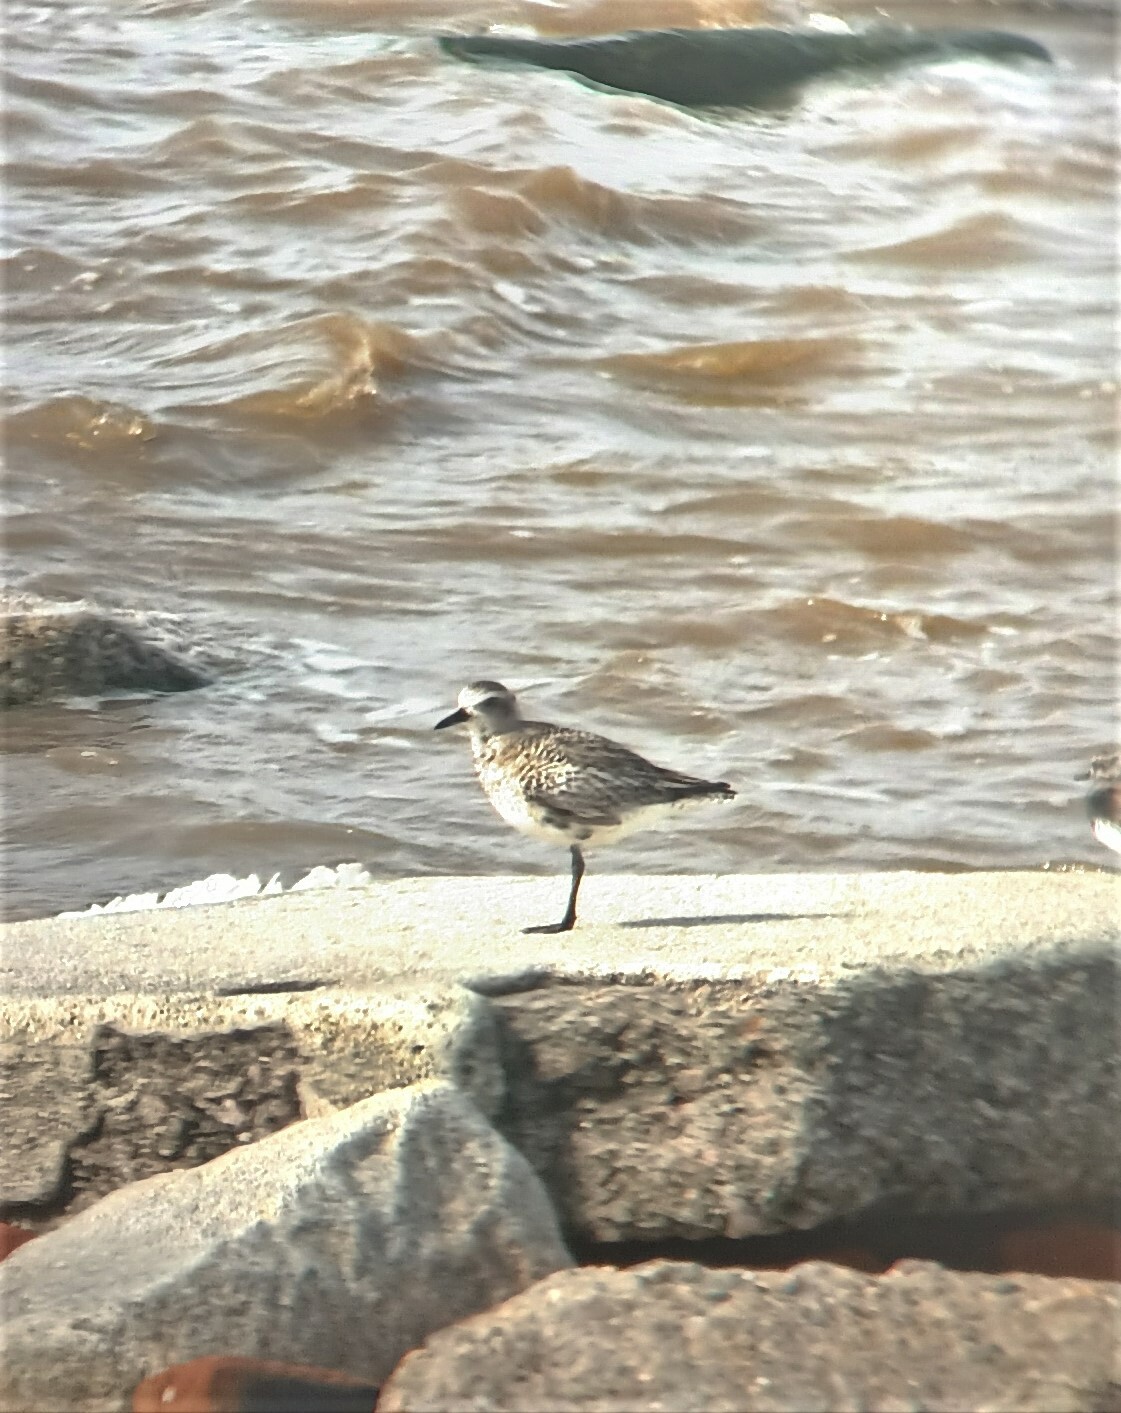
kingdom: Animalia
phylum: Chordata
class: Aves
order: Charadriiformes
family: Charadriidae
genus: Pluvialis
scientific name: Pluvialis squatarola
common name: Grey plover
